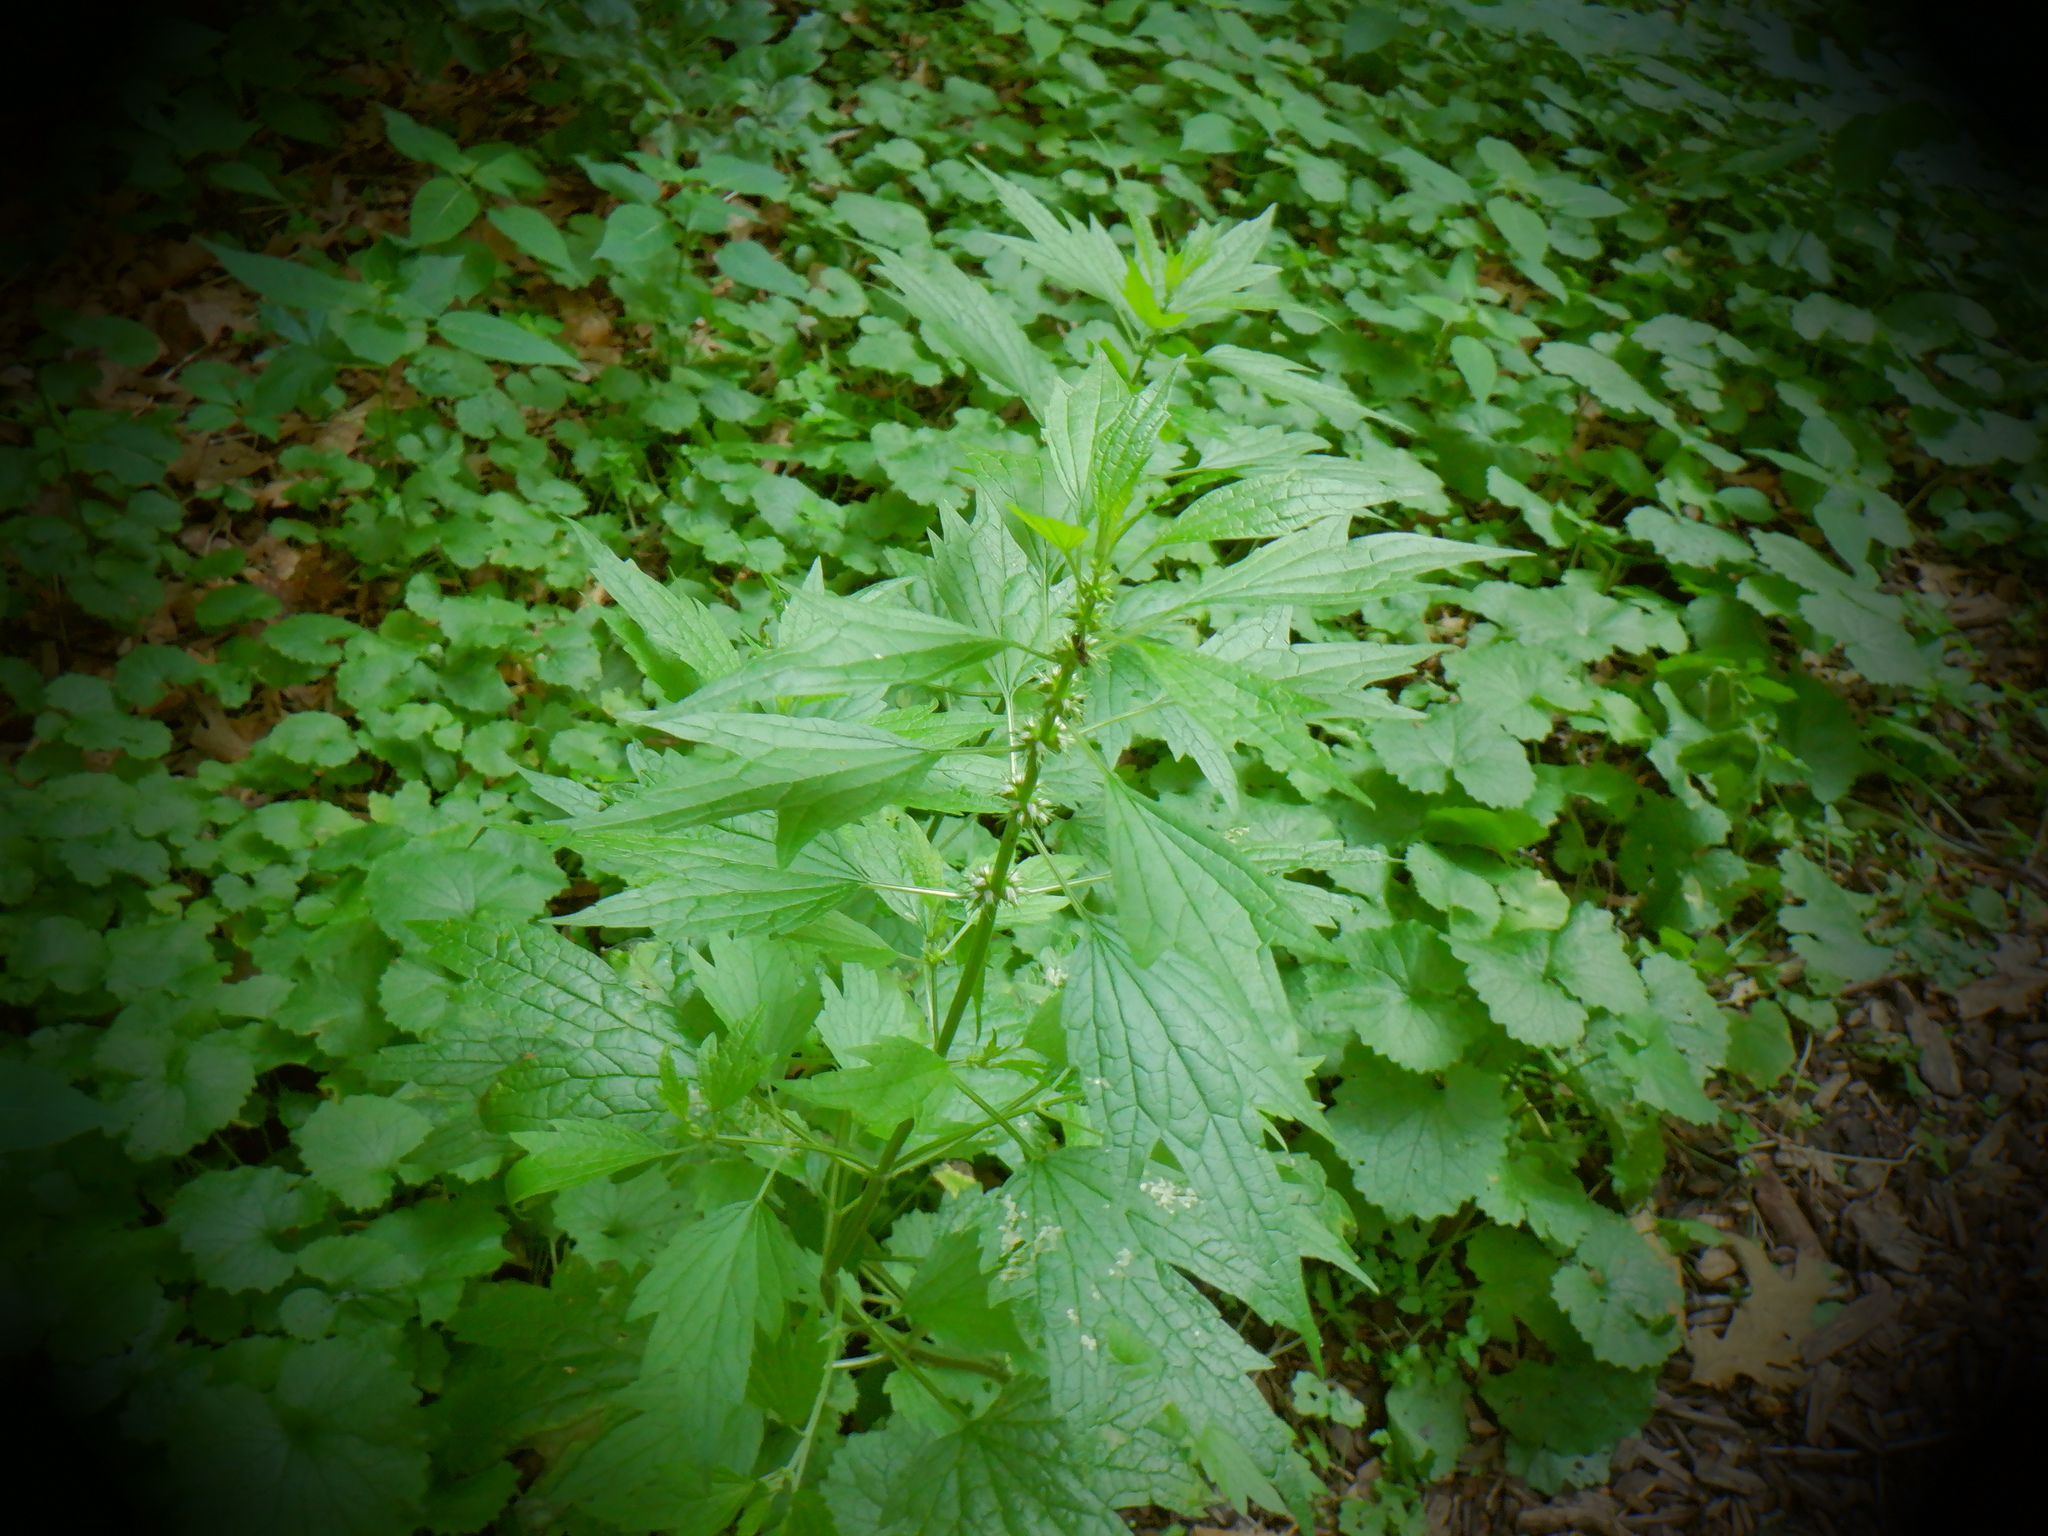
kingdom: Plantae
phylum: Tracheophyta
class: Magnoliopsida
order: Lamiales
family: Lamiaceae
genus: Leonurus
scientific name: Leonurus cardiaca
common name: Motherwort
